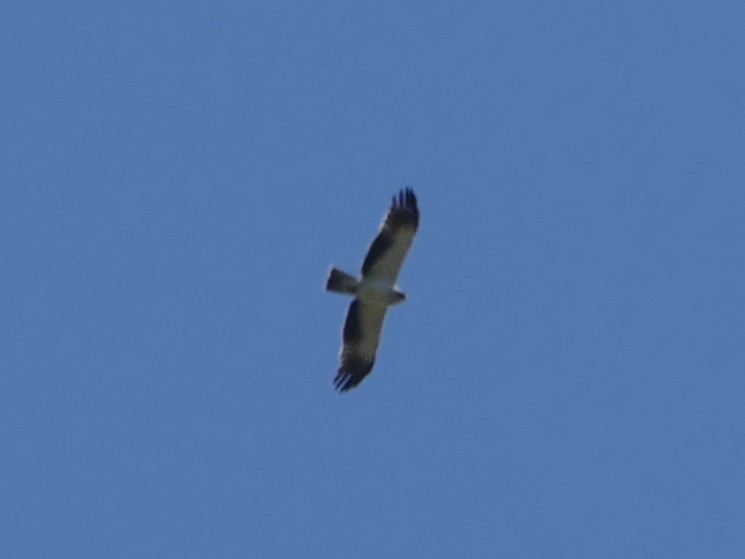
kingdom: Animalia
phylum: Chordata
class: Aves
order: Accipitriformes
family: Accipitridae
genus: Hieraaetus
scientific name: Hieraaetus pennatus
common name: Booted eagle
